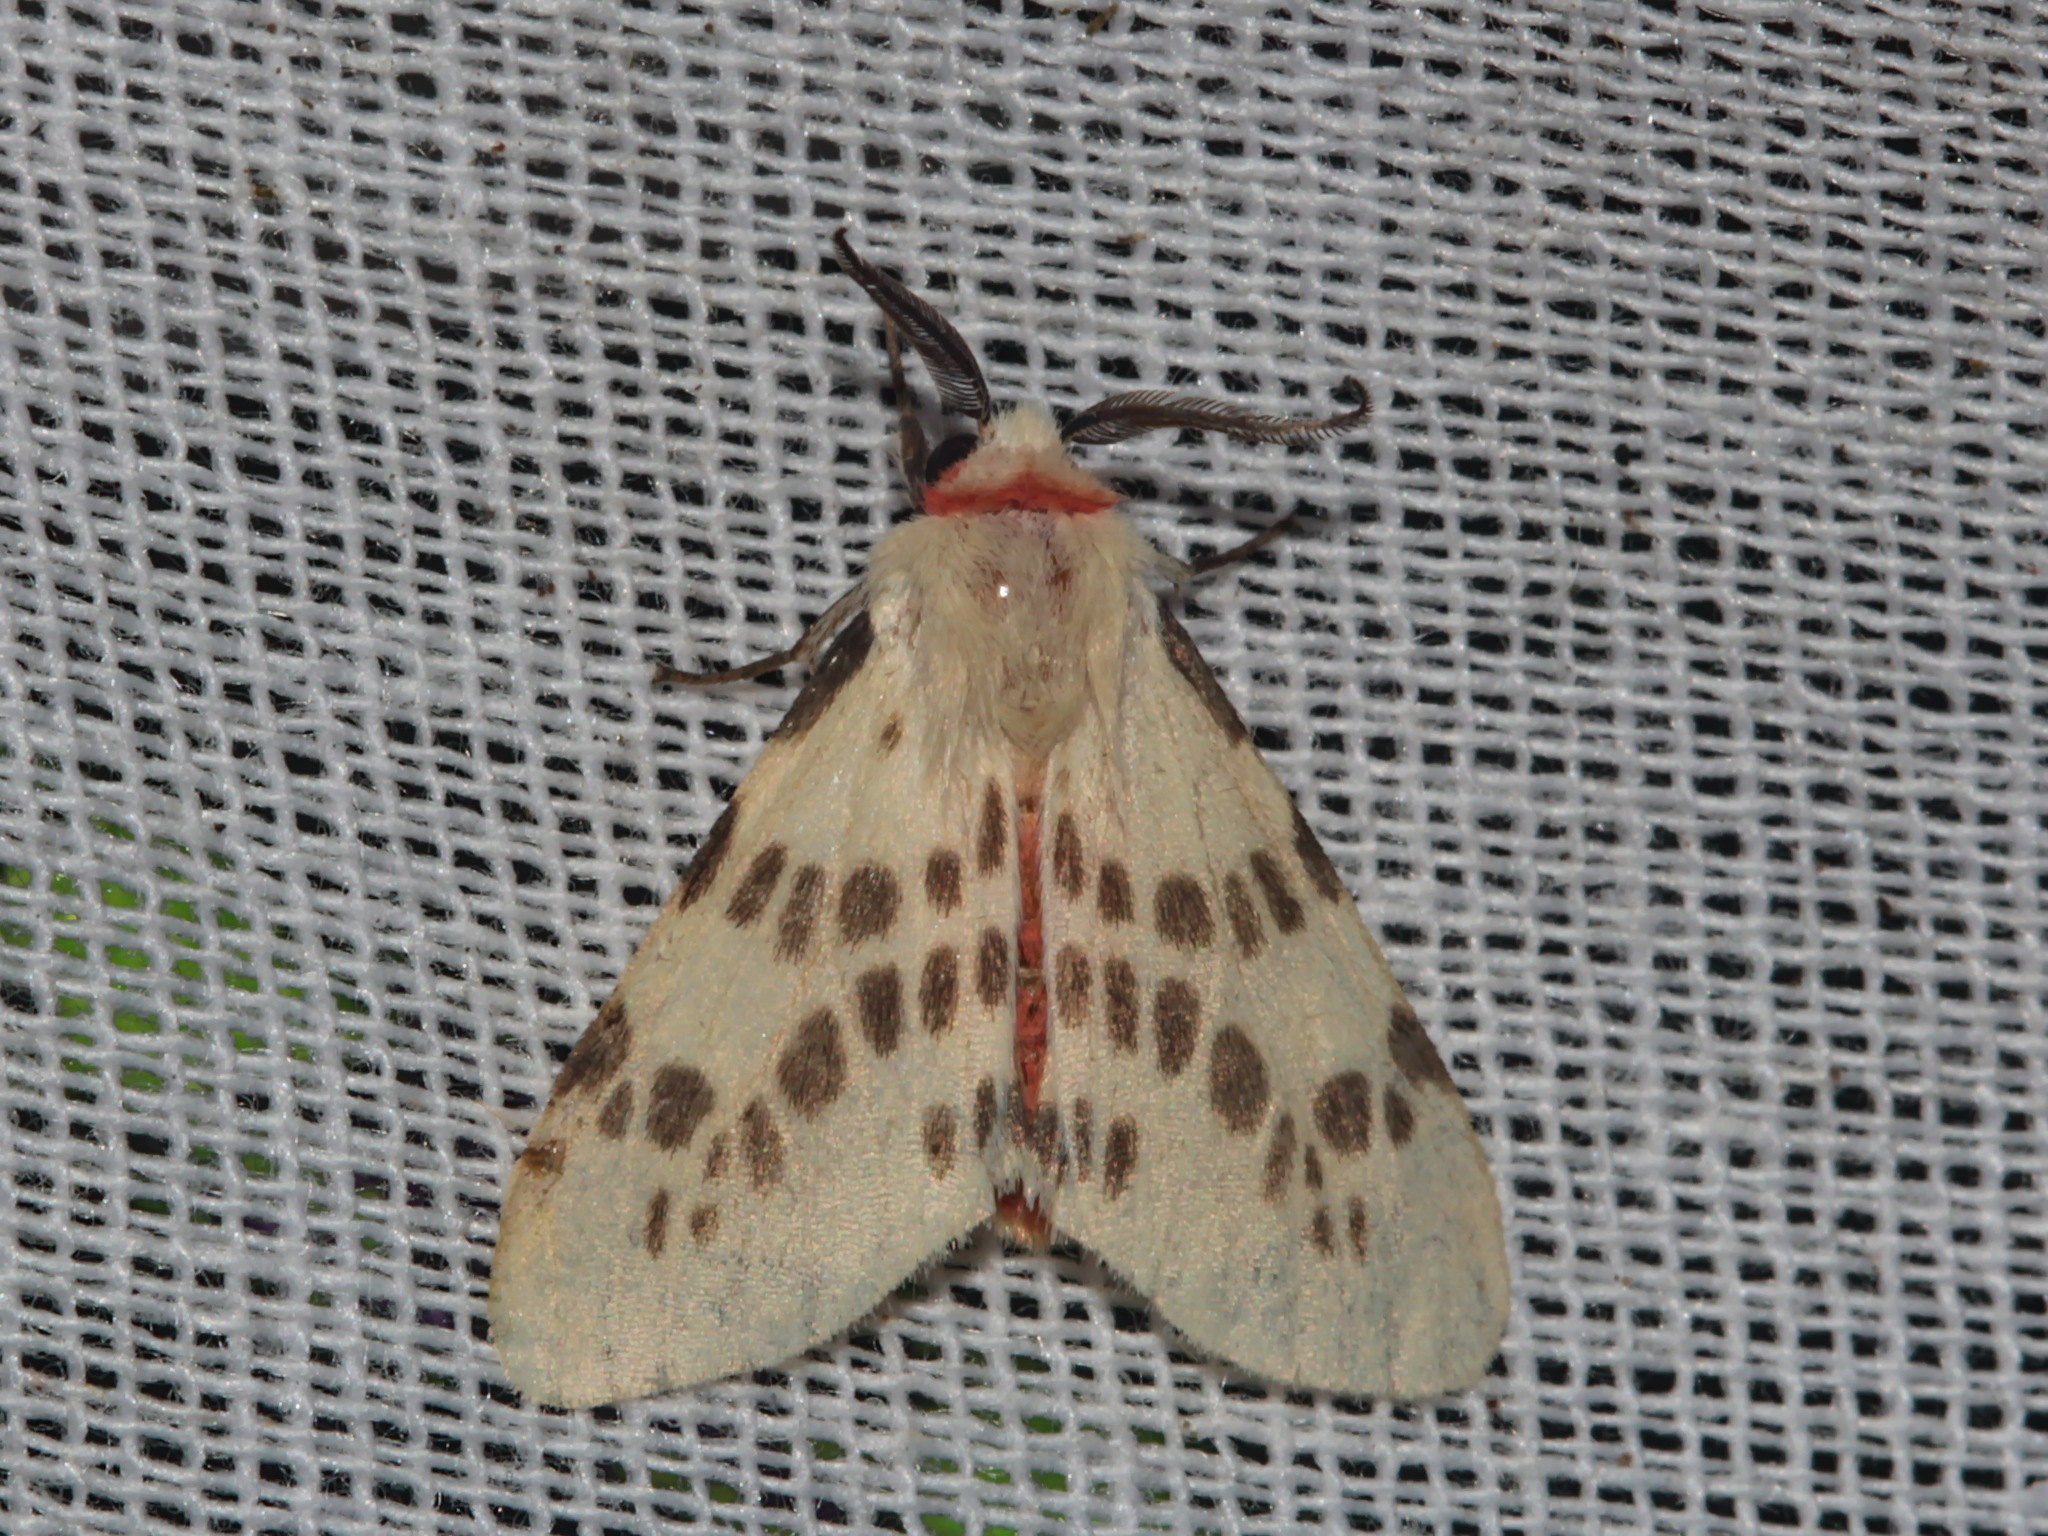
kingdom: Animalia
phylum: Arthropoda
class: Insecta
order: Lepidoptera
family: Erebidae
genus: Lemyra
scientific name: Lemyra ypsilon
